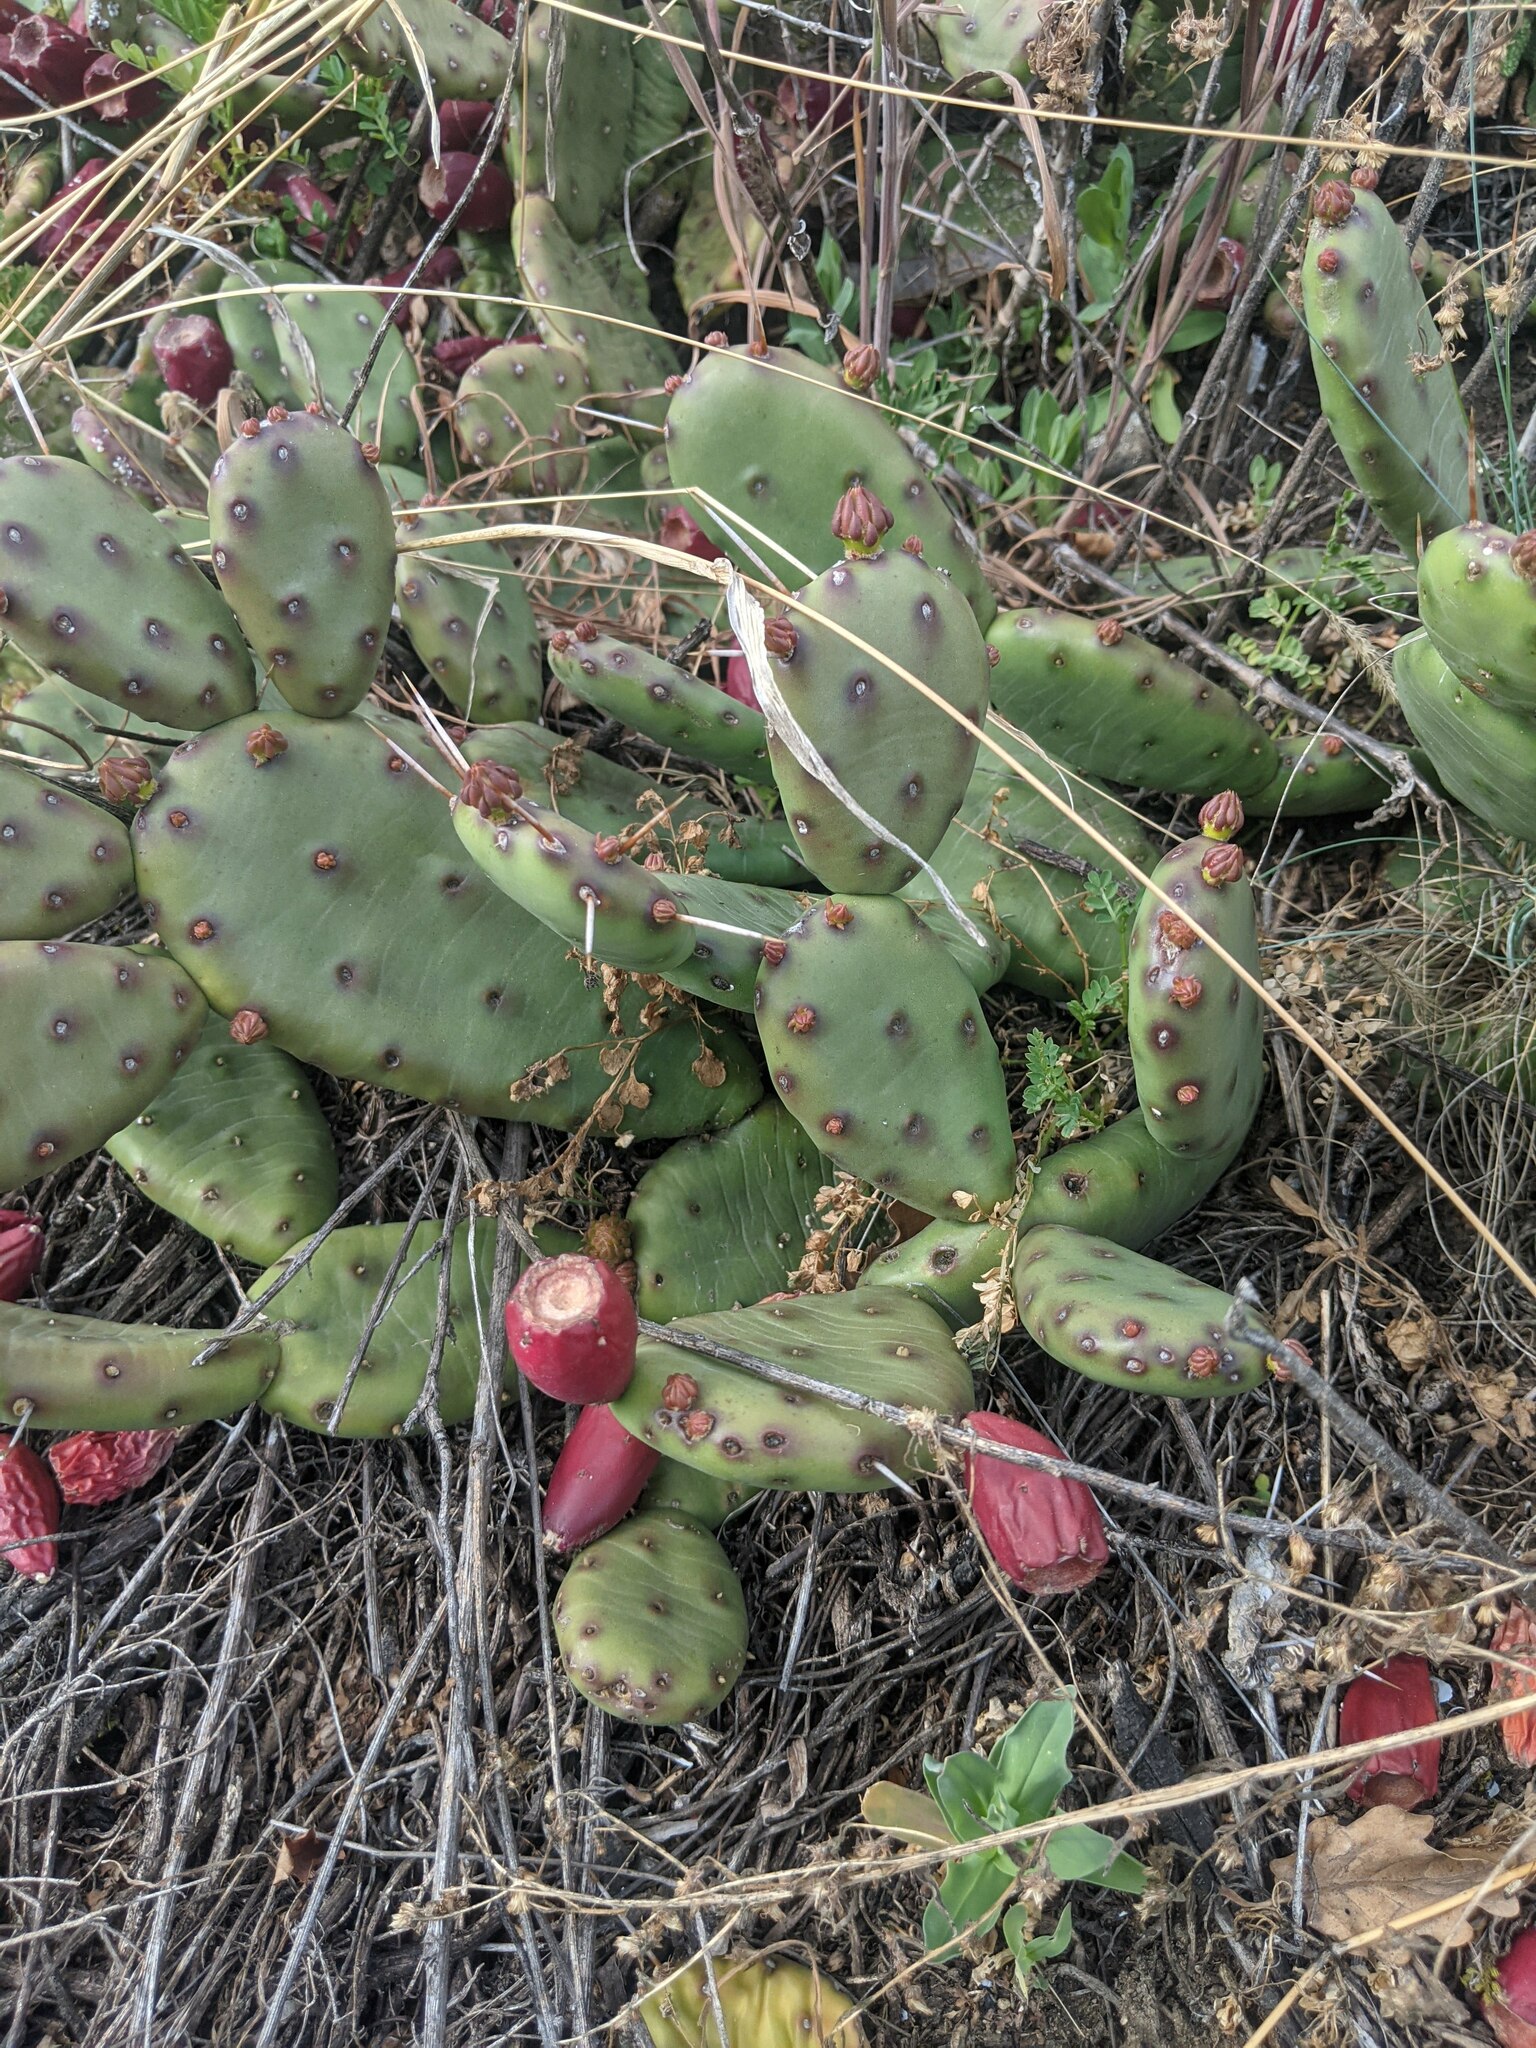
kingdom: Plantae
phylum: Tracheophyta
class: Magnoliopsida
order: Caryophyllales
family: Cactaceae
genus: Opuntia
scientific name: Opuntia humifusa
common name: Eastern prickly-pear
